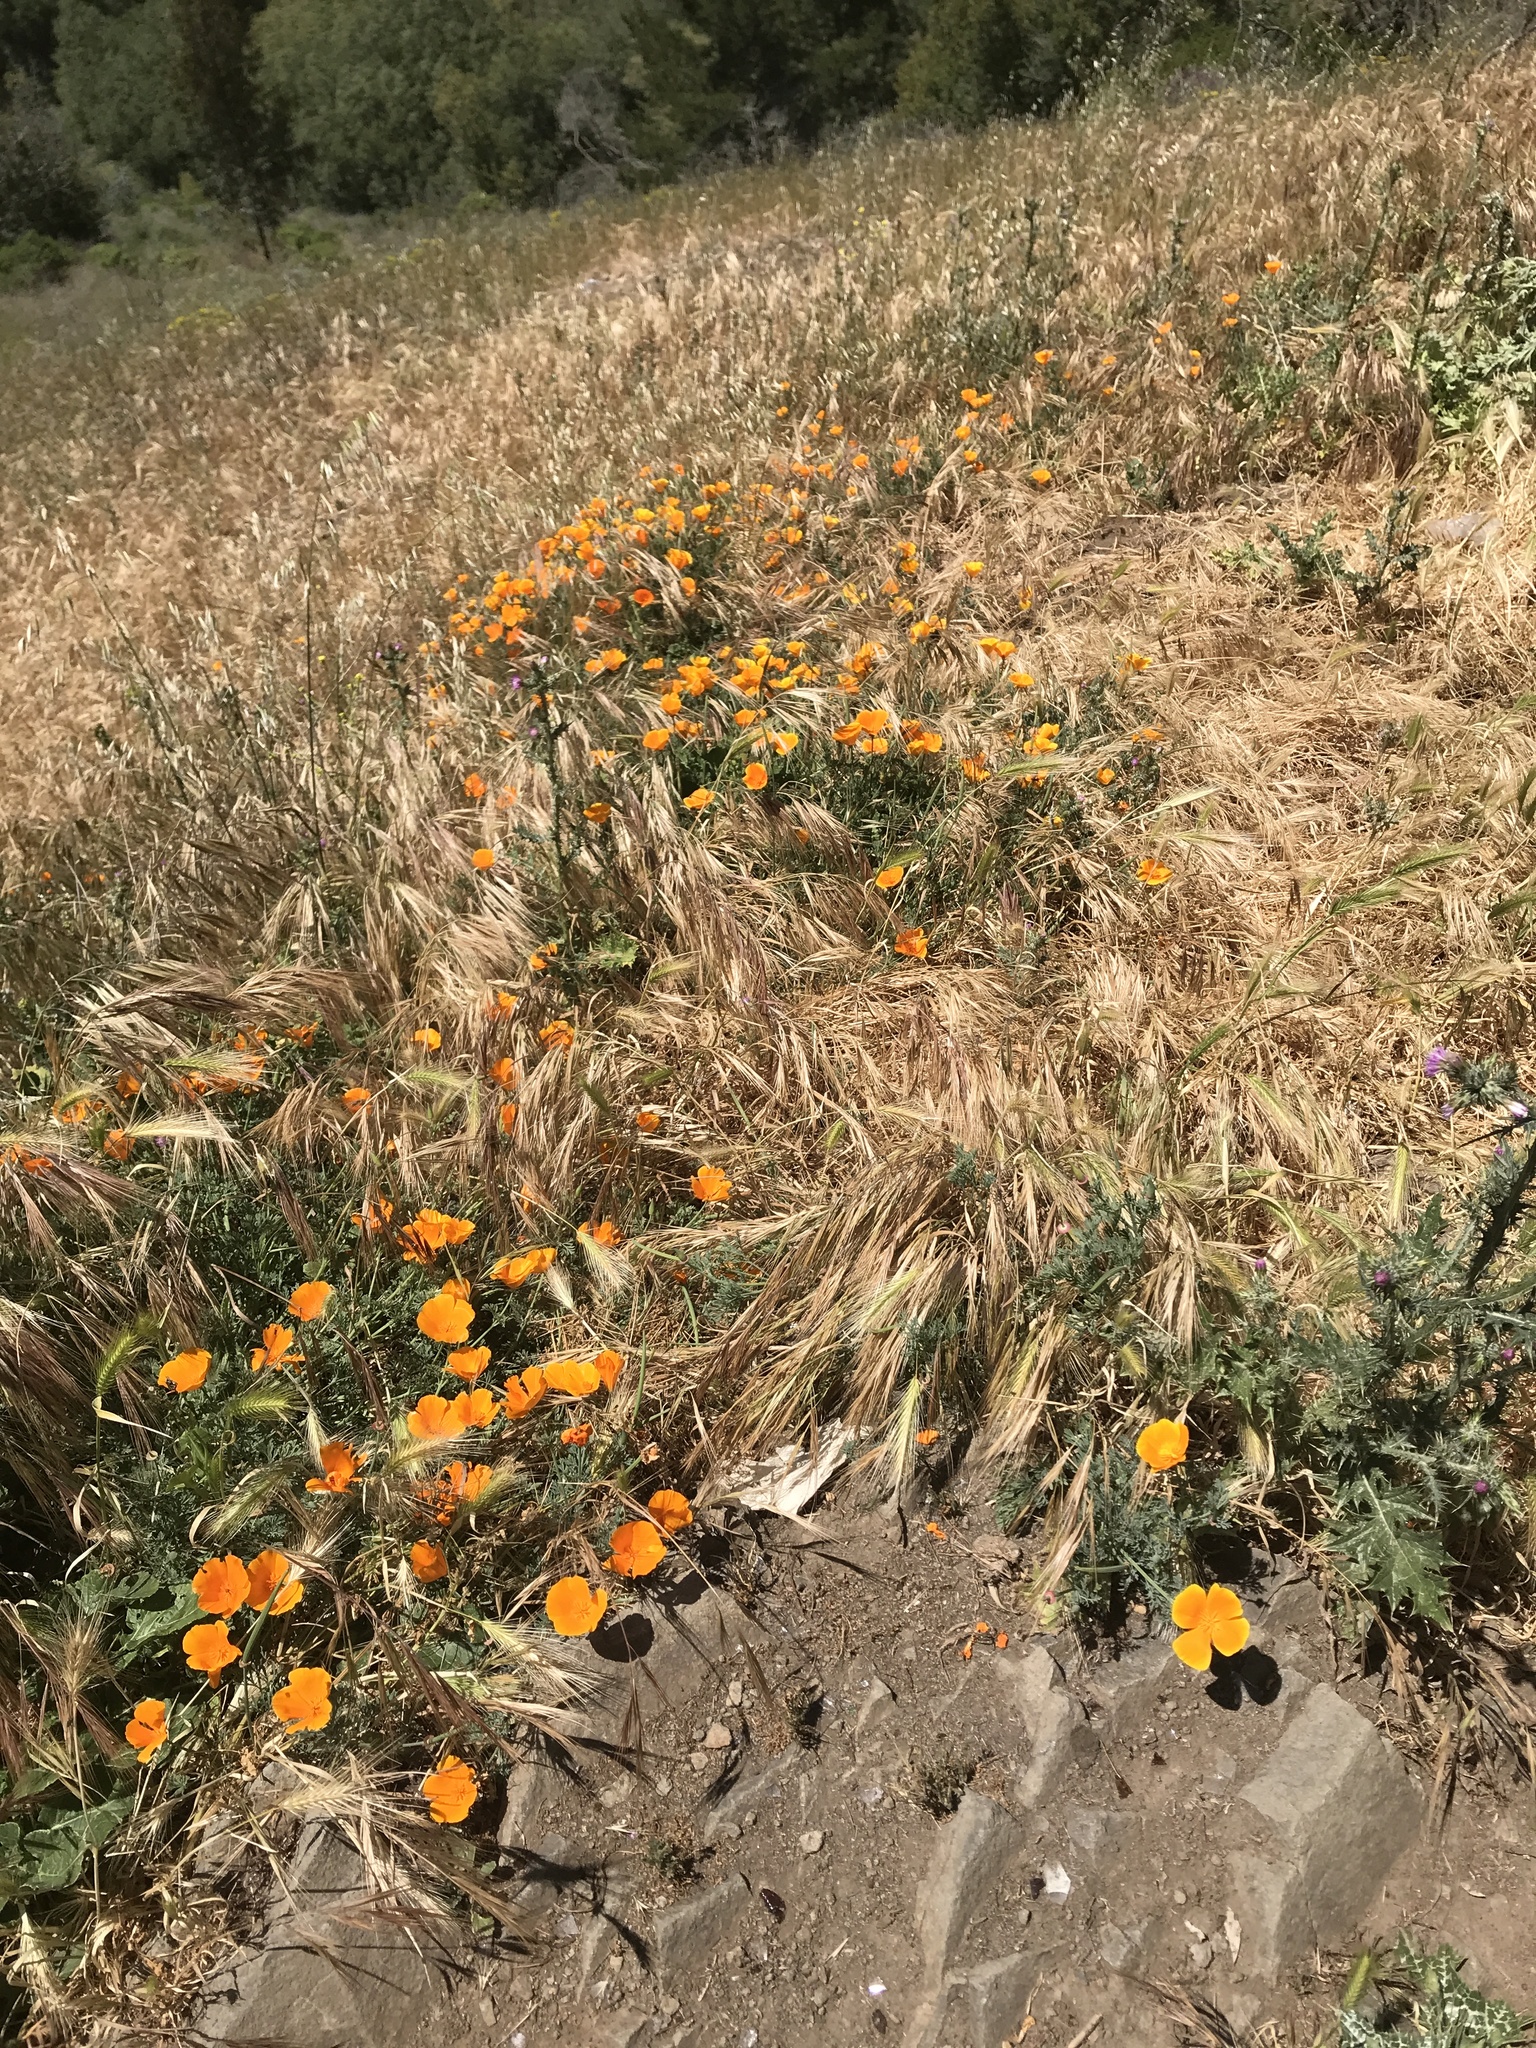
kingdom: Plantae
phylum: Tracheophyta
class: Magnoliopsida
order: Ranunculales
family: Papaveraceae
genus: Eschscholzia
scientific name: Eschscholzia californica
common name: California poppy
